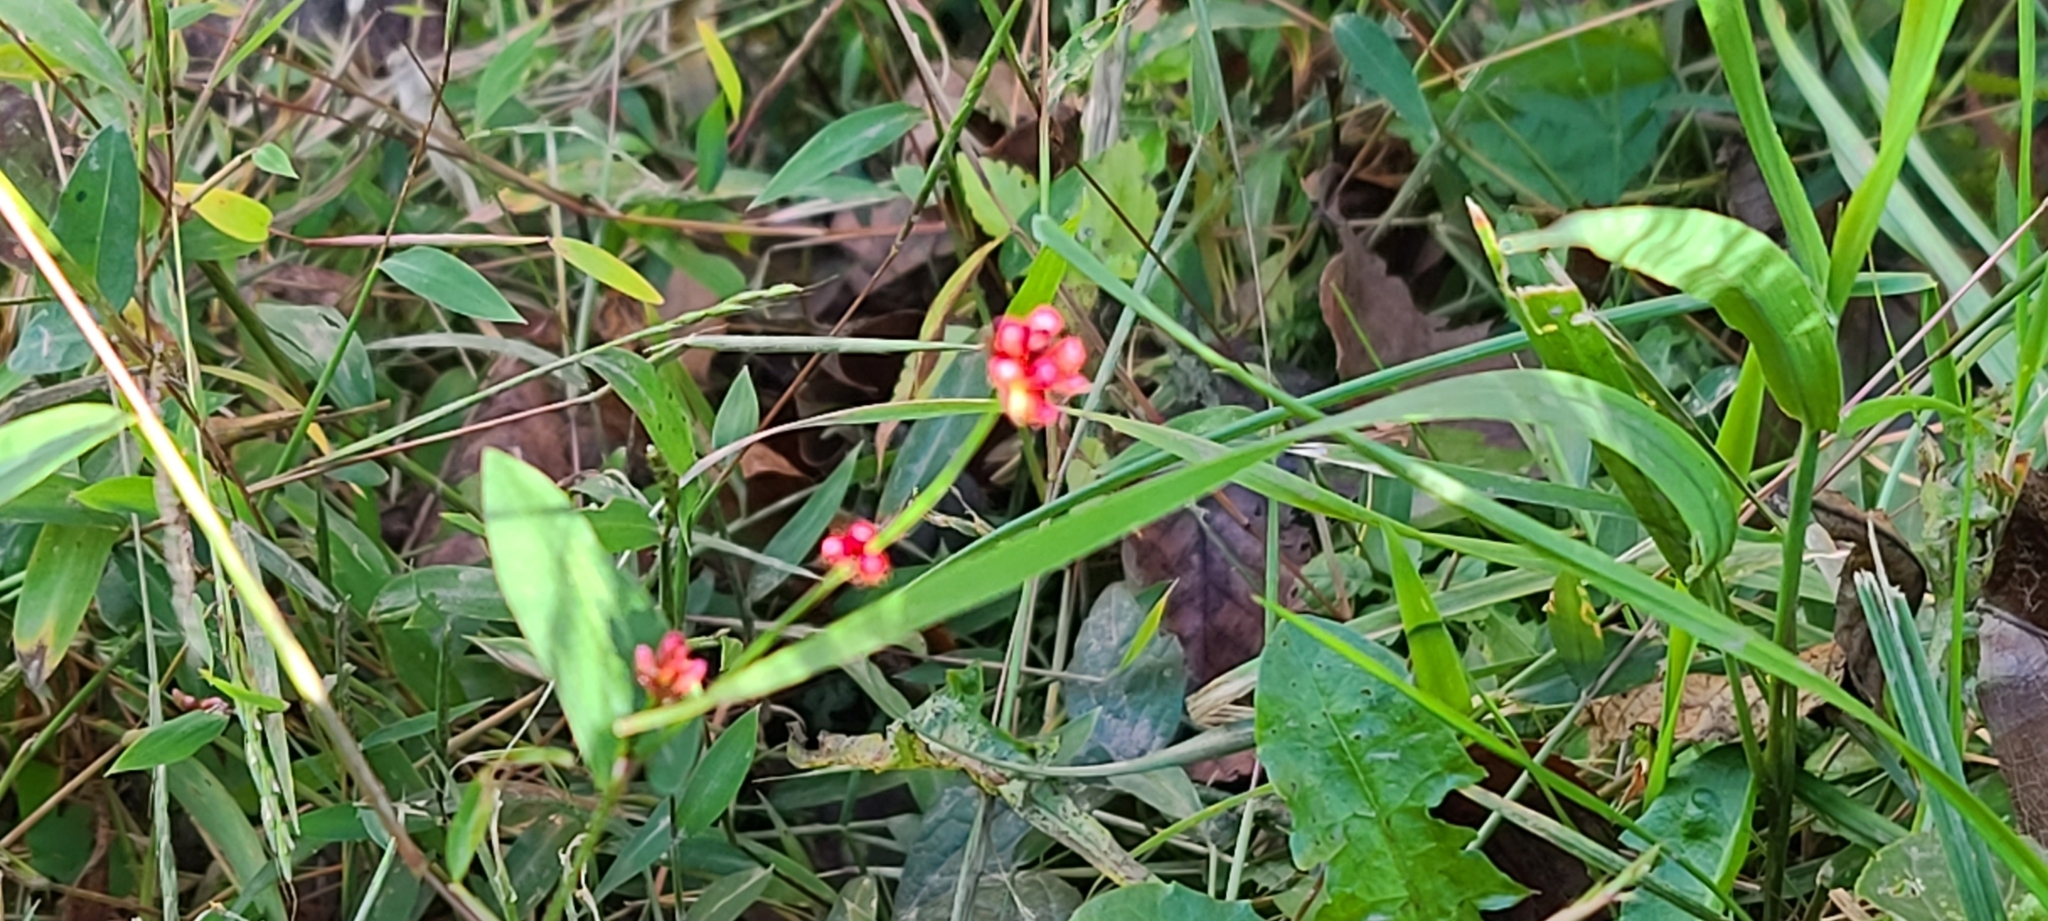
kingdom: Plantae
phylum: Tracheophyta
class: Magnoliopsida
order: Caryophyllales
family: Polygonaceae
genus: Persicaria
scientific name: Persicaria sagittata
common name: American tearthumb
